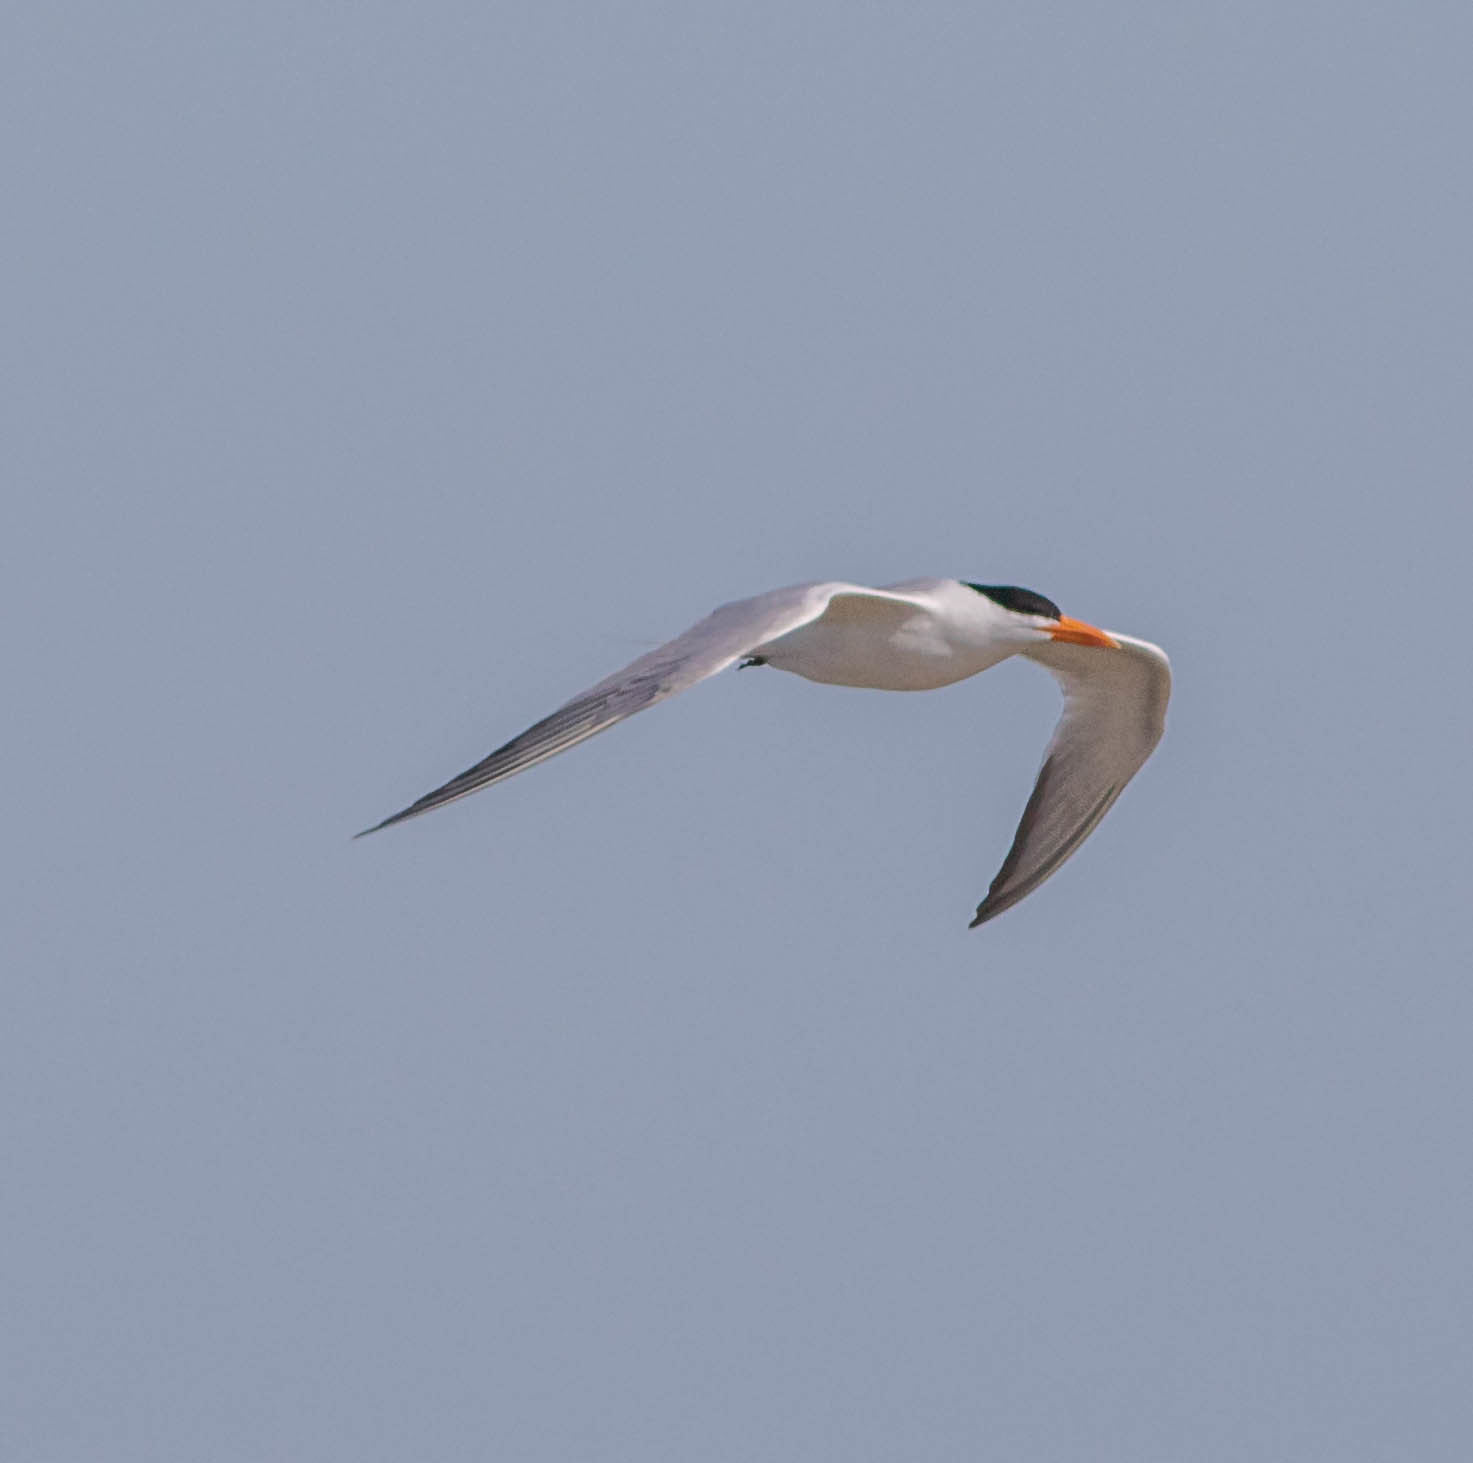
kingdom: Animalia
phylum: Chordata
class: Aves
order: Charadriiformes
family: Laridae
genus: Thalasseus
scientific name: Thalasseus maximus
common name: Royal tern
